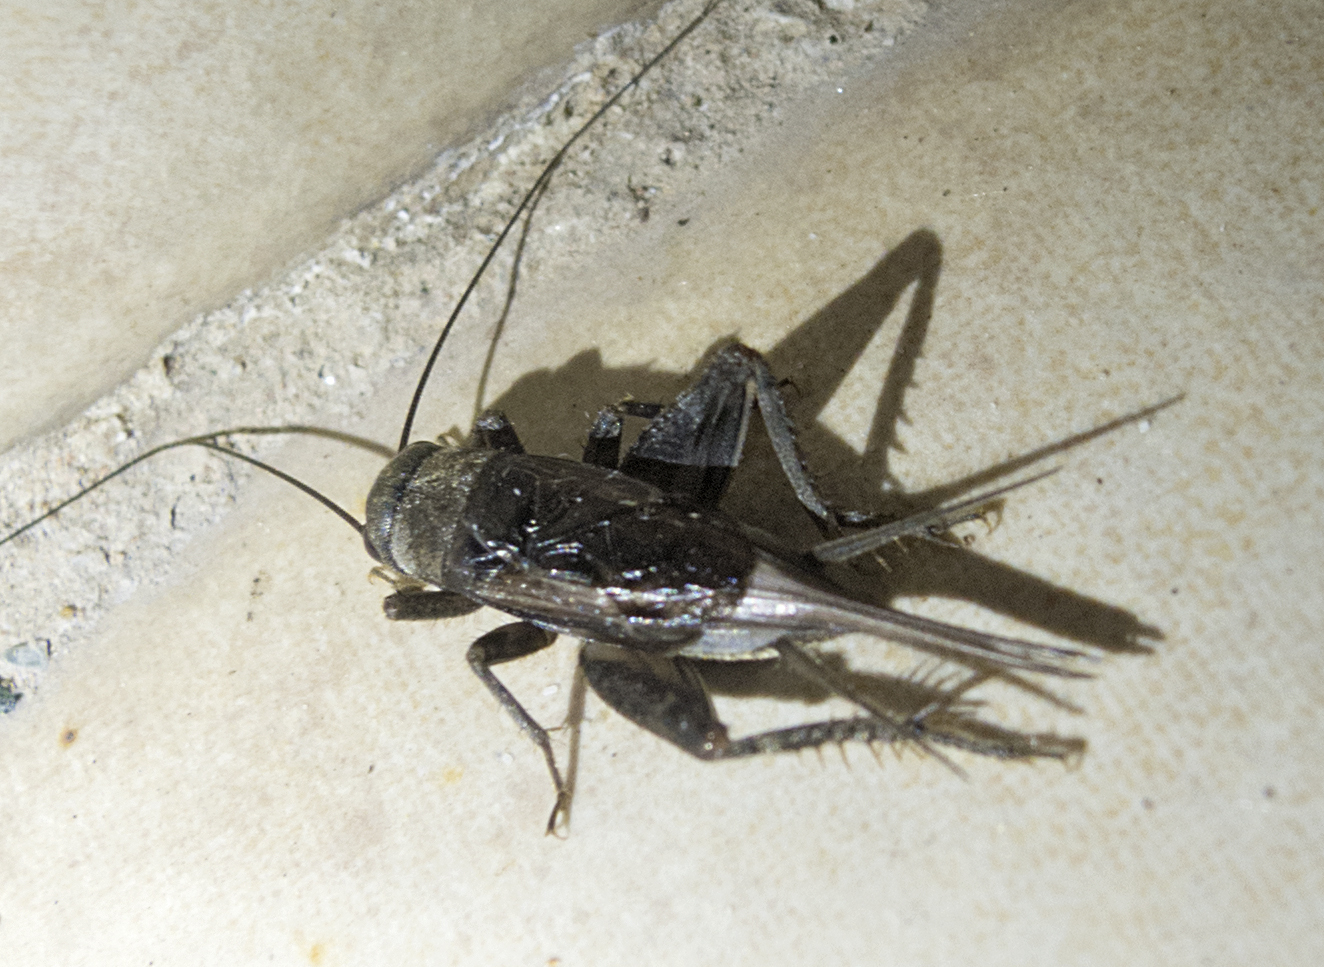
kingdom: Animalia
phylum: Arthropoda
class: Insecta
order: Orthoptera
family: Gryllidae
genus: Eumodicogryllus
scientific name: Eumodicogryllus bordigalensis
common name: Bordeaux cricket
